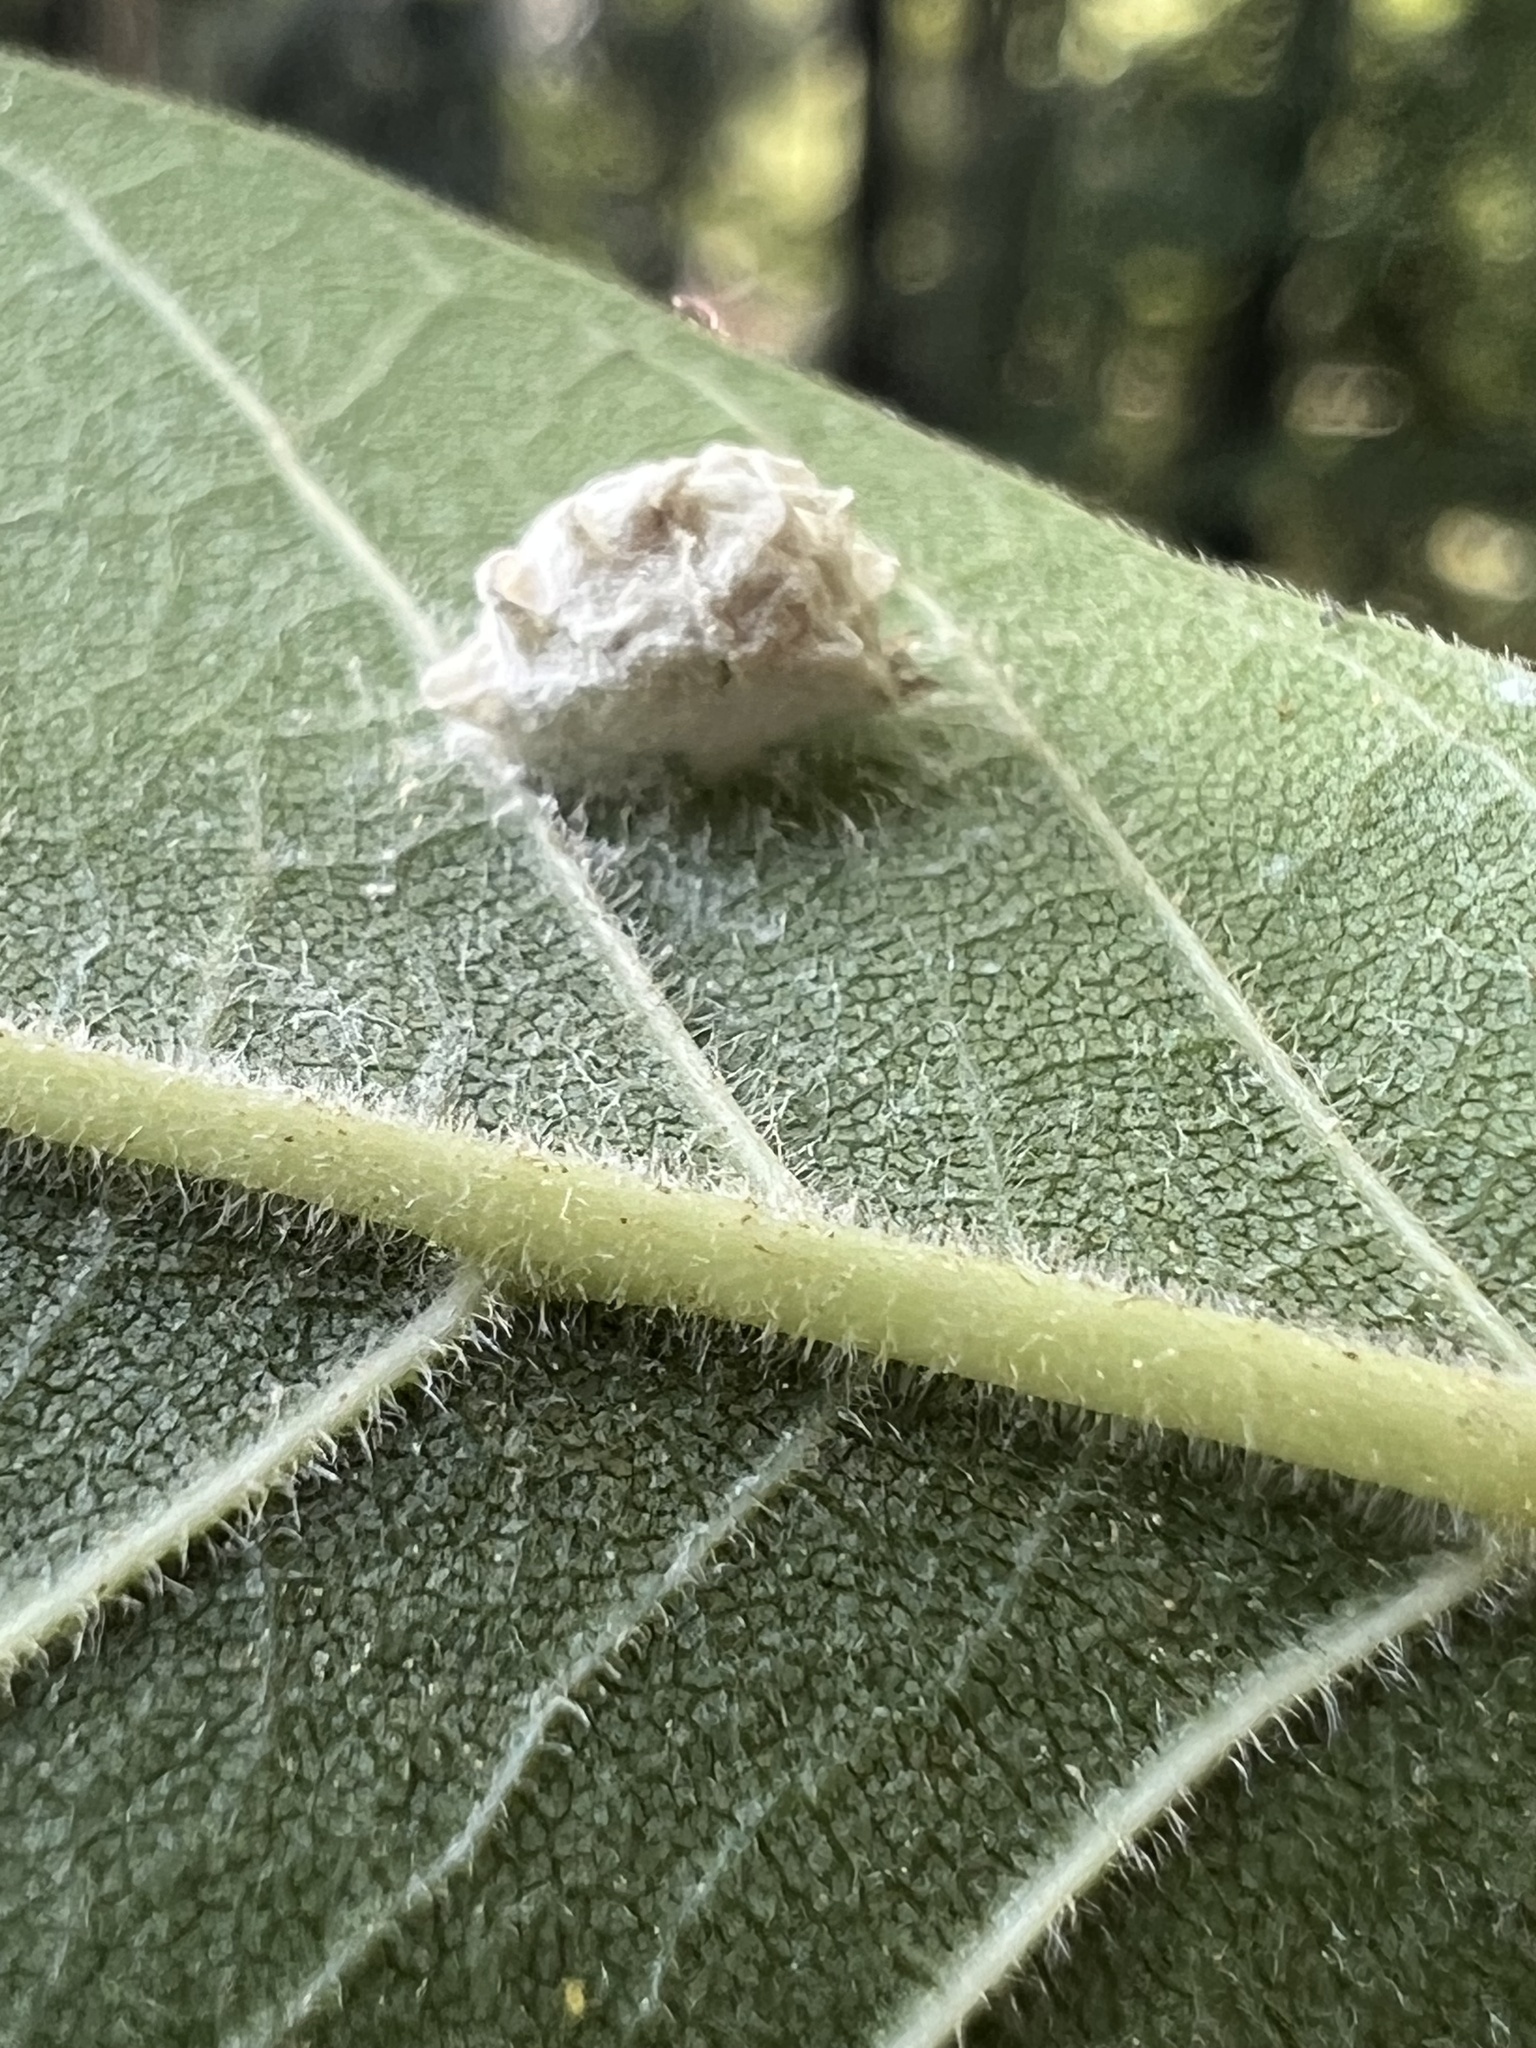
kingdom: Animalia
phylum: Arthropoda
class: Insecta
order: Lepidoptera
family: Epipyropidae
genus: Fulgoraecia
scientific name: Fulgoraecia exigua
